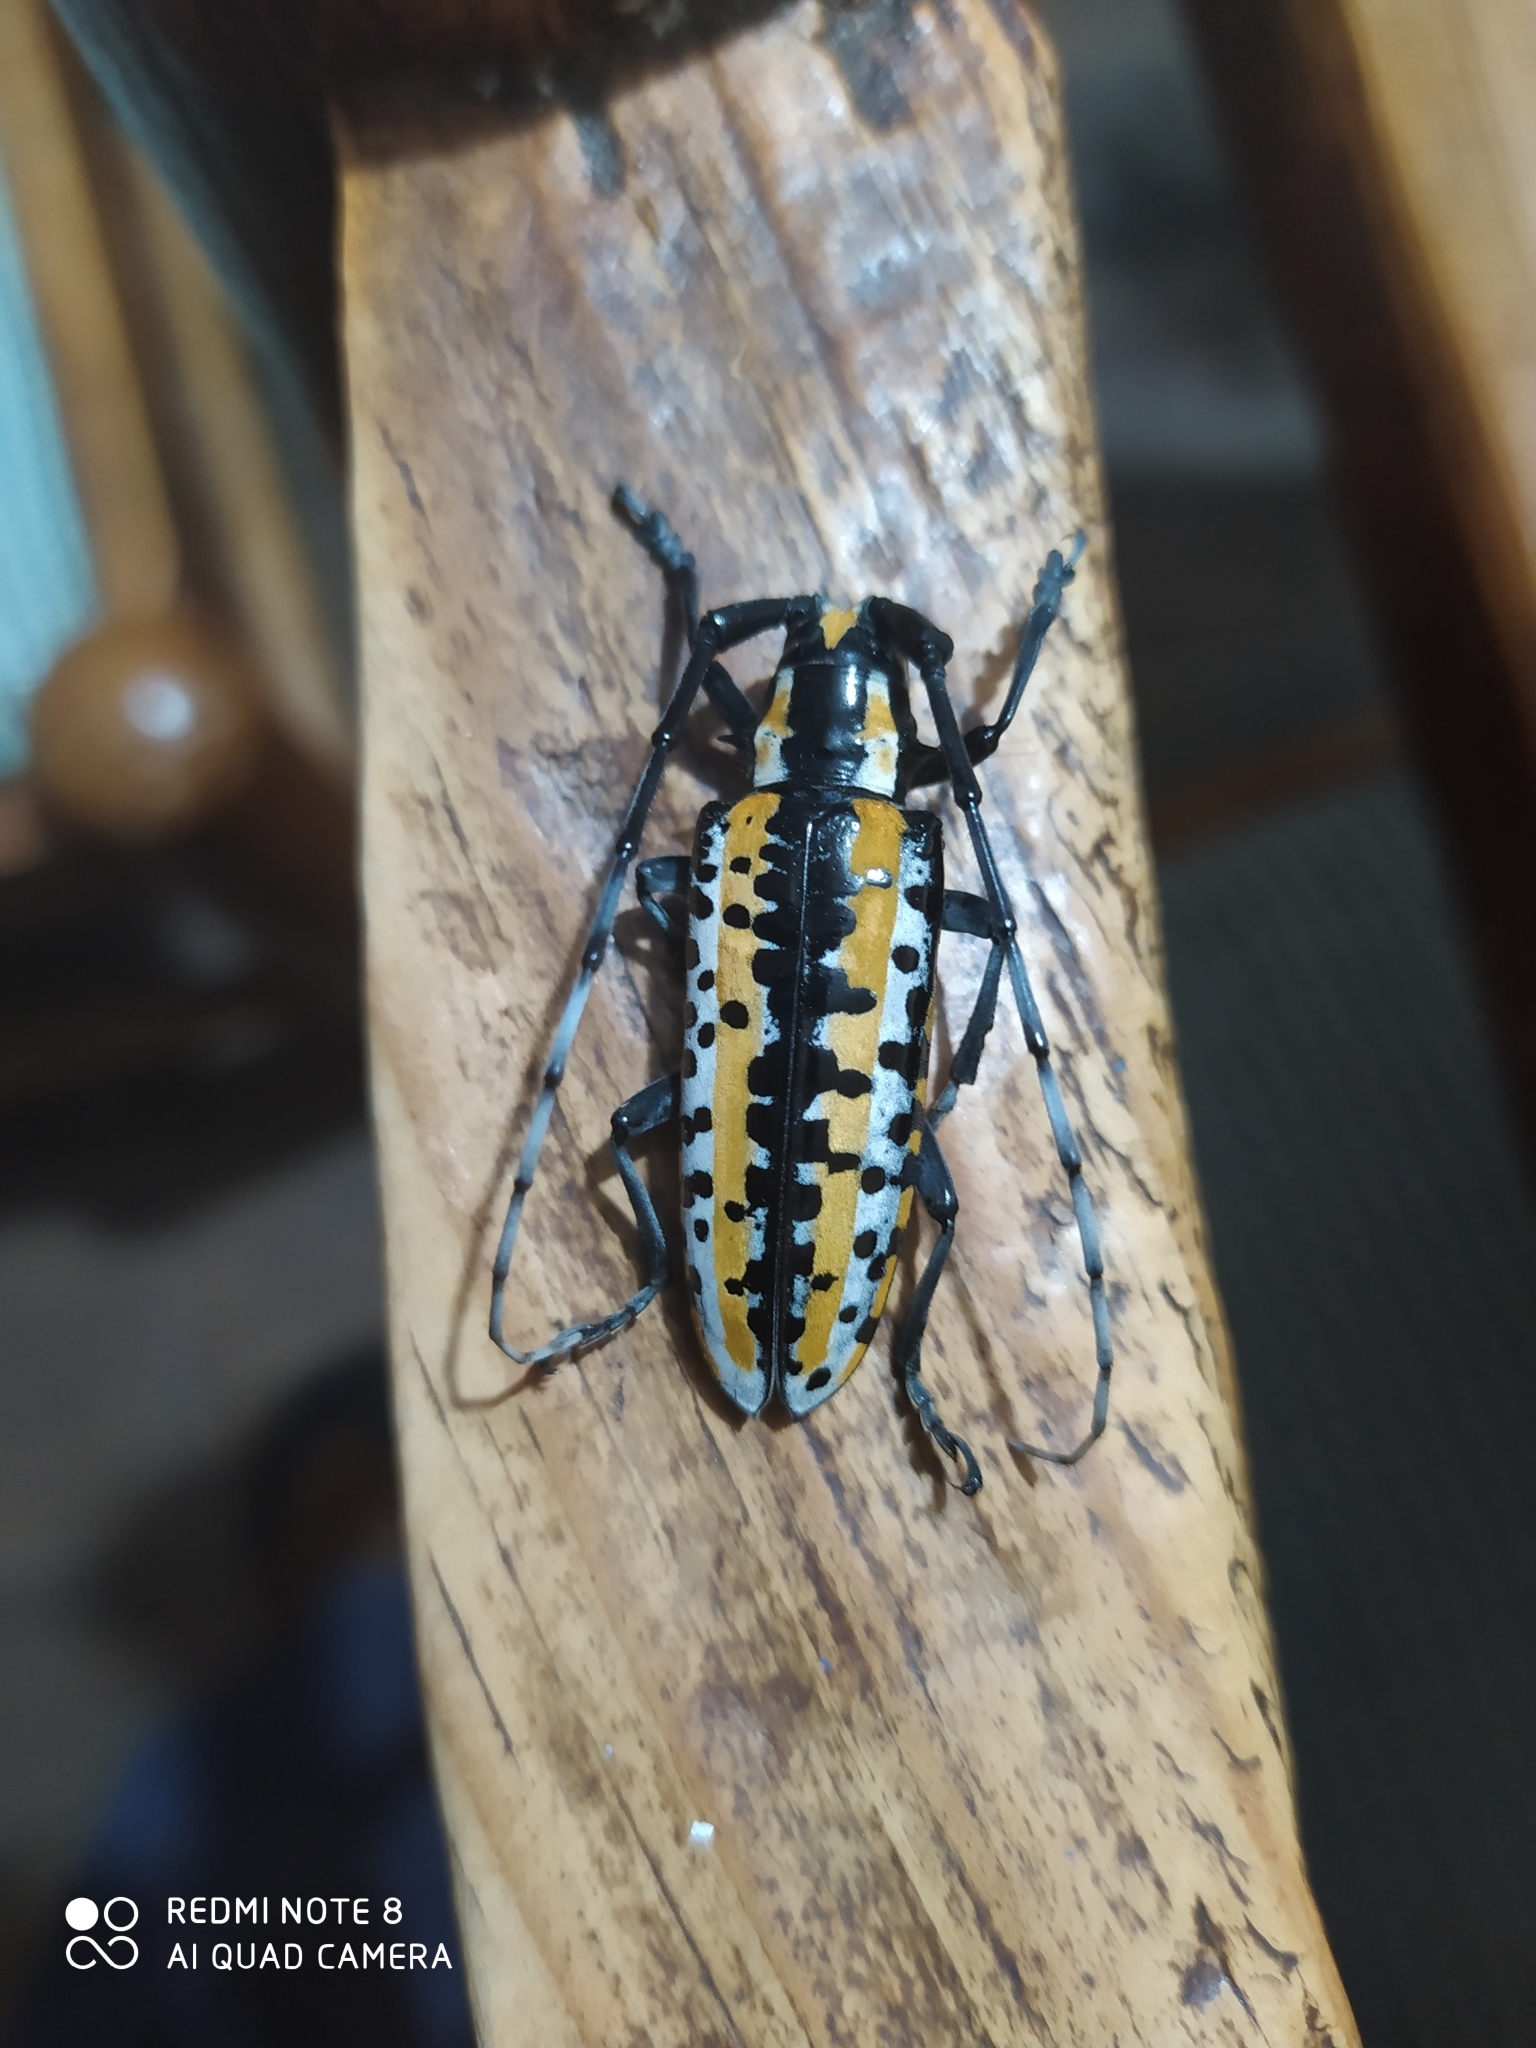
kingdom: Animalia
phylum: Arthropoda
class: Insecta
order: Coleoptera
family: Cerambycidae
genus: Deliathis
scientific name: Deliathis buquetii
